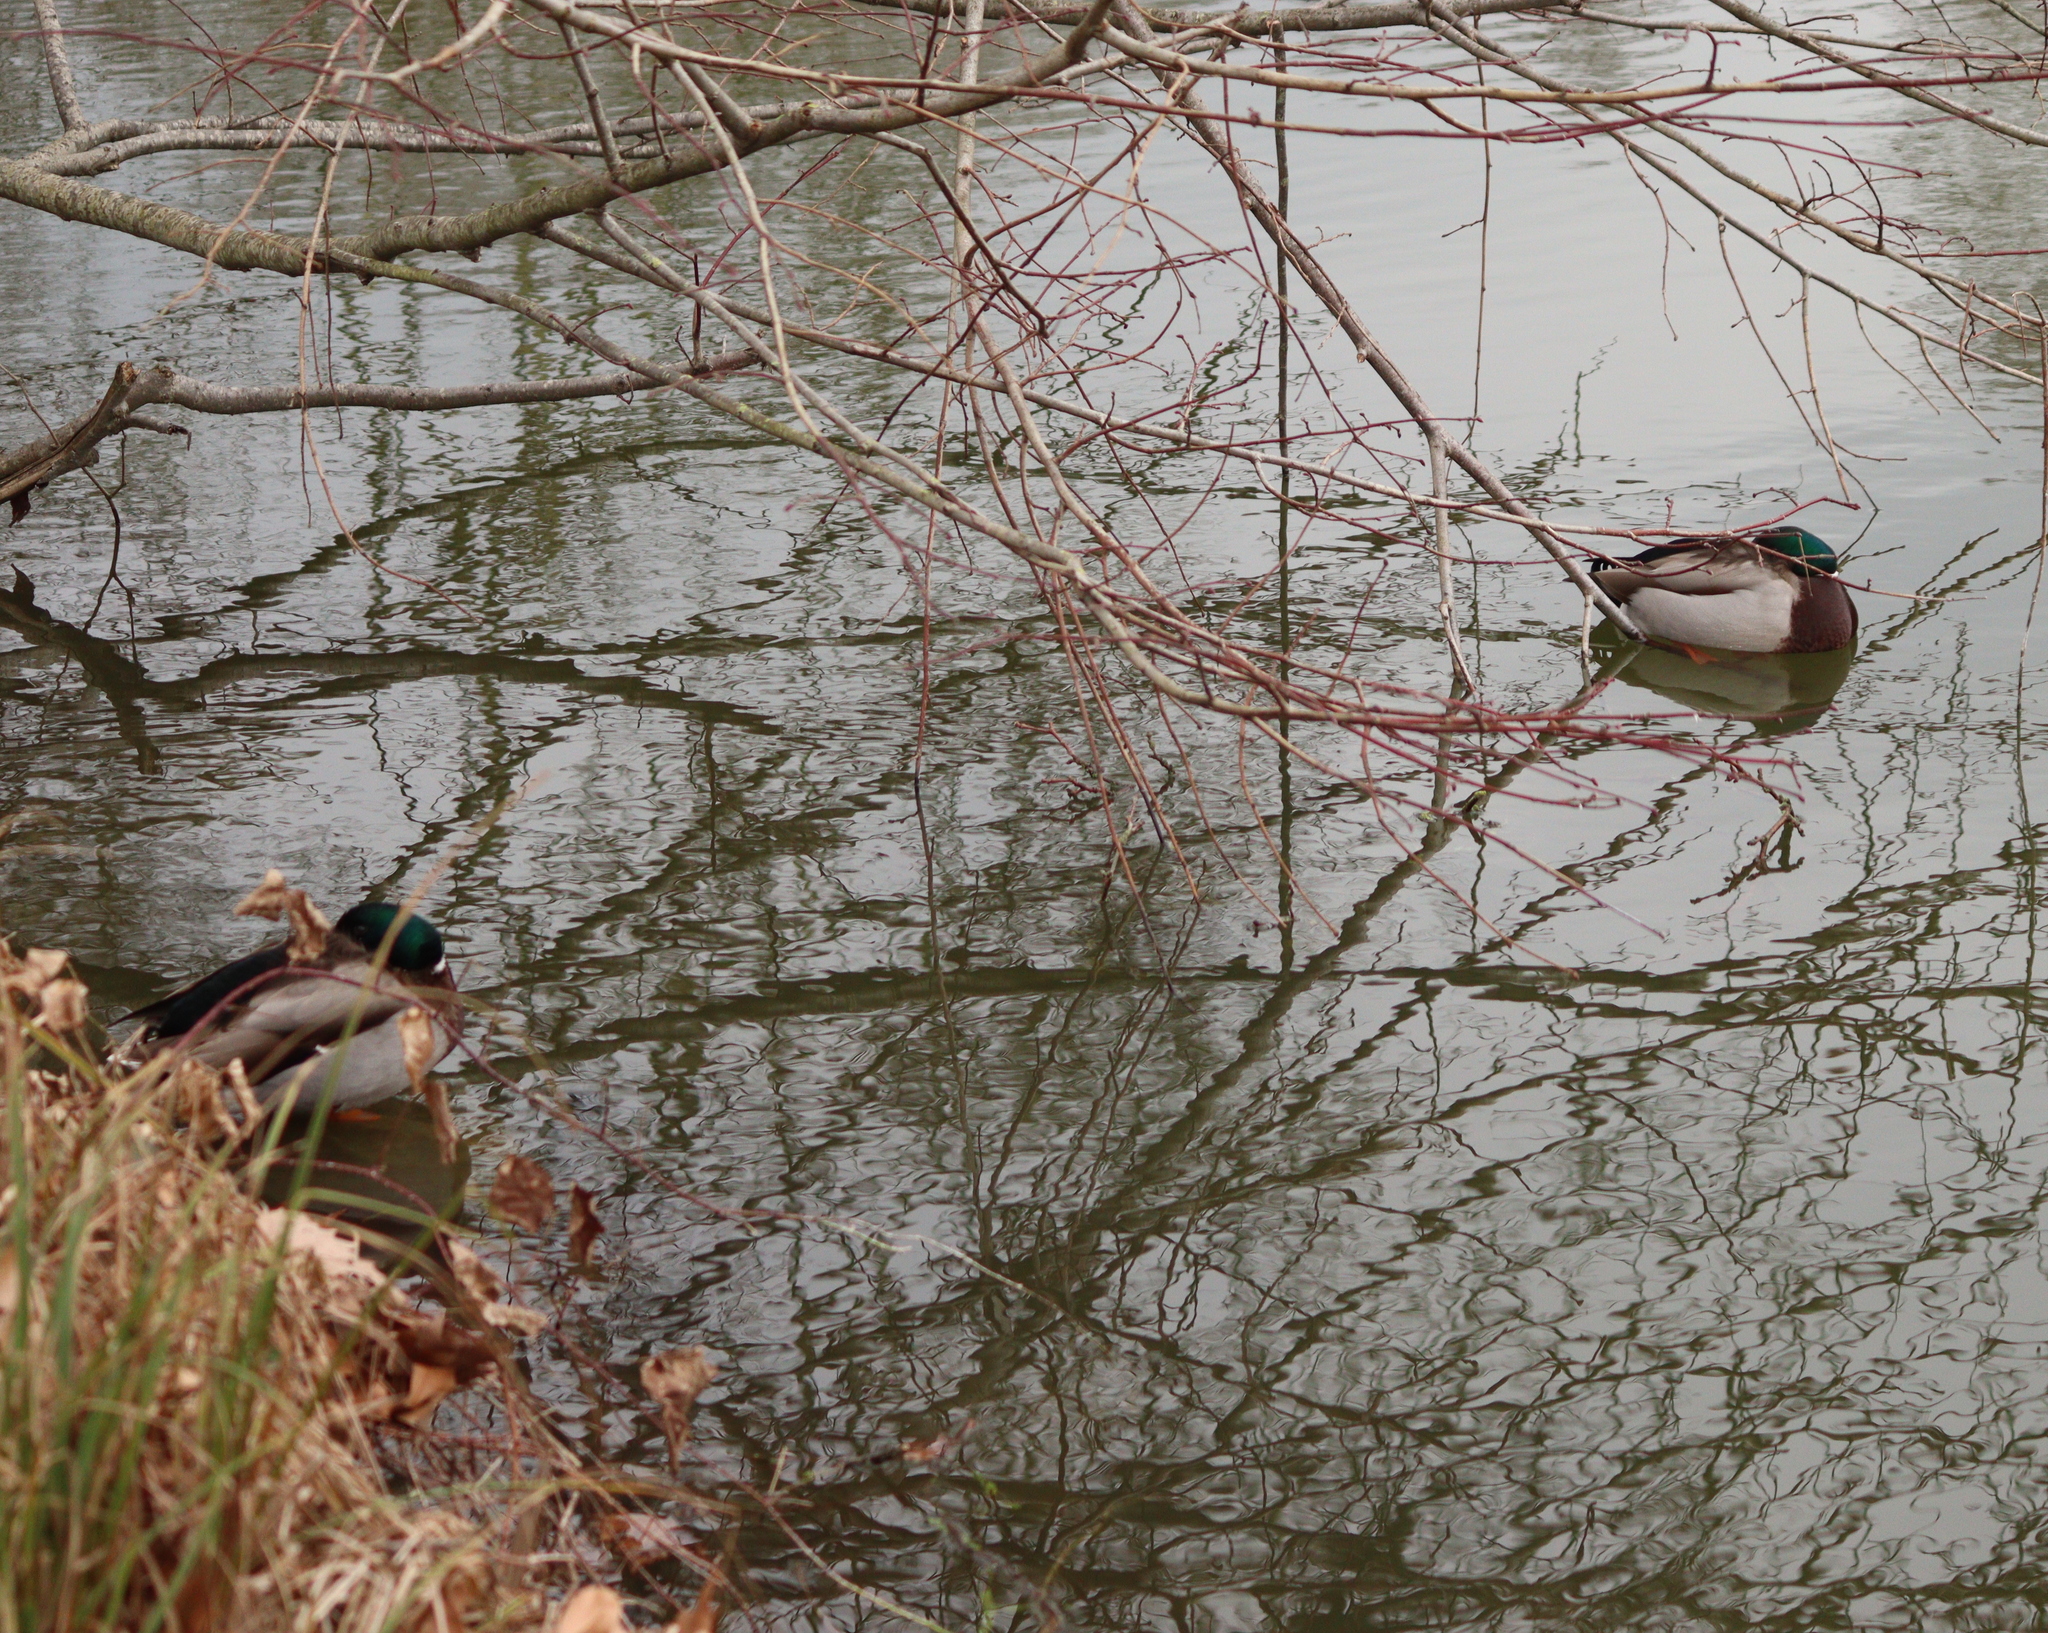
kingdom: Animalia
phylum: Chordata
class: Aves
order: Anseriformes
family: Anatidae
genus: Anas
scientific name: Anas platyrhynchos
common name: Mallard
